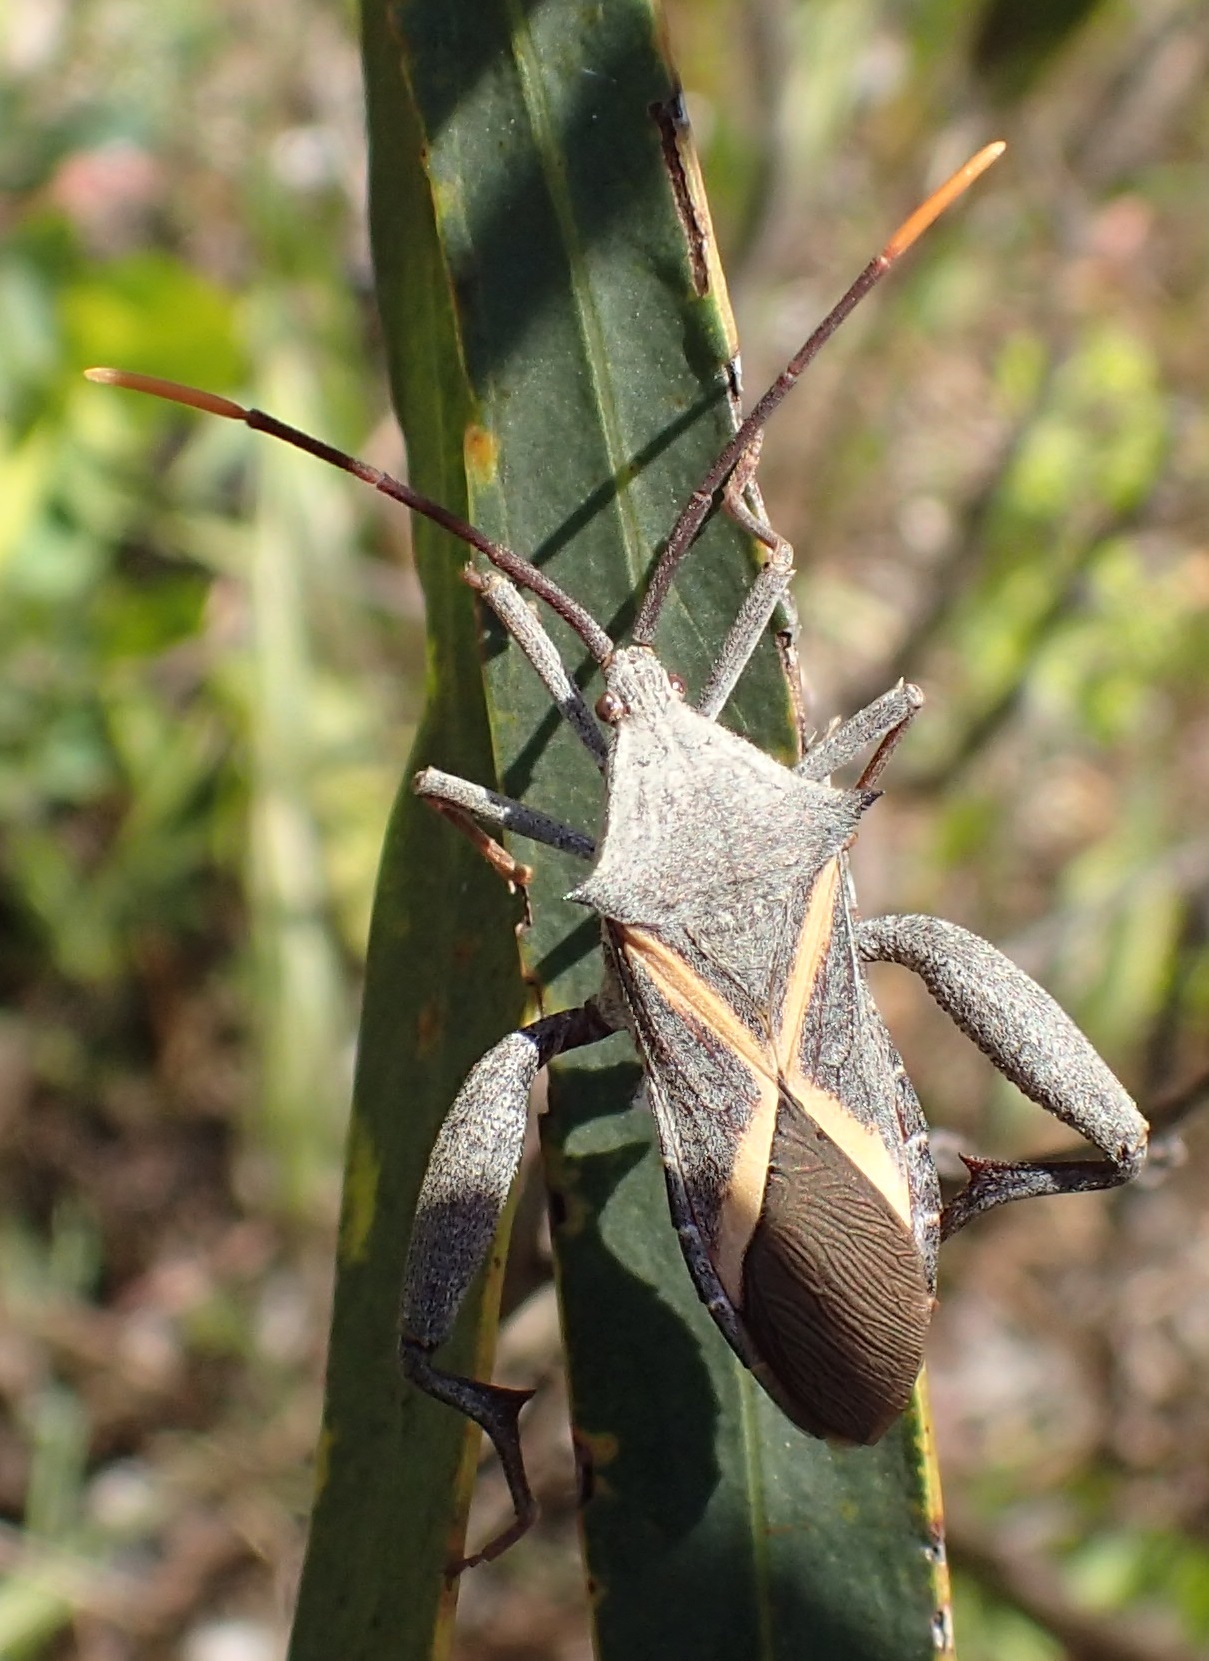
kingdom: Animalia
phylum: Arthropoda
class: Insecta
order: Hemiptera
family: Coreidae
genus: Mictis
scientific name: Mictis profana
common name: Crusader bug
